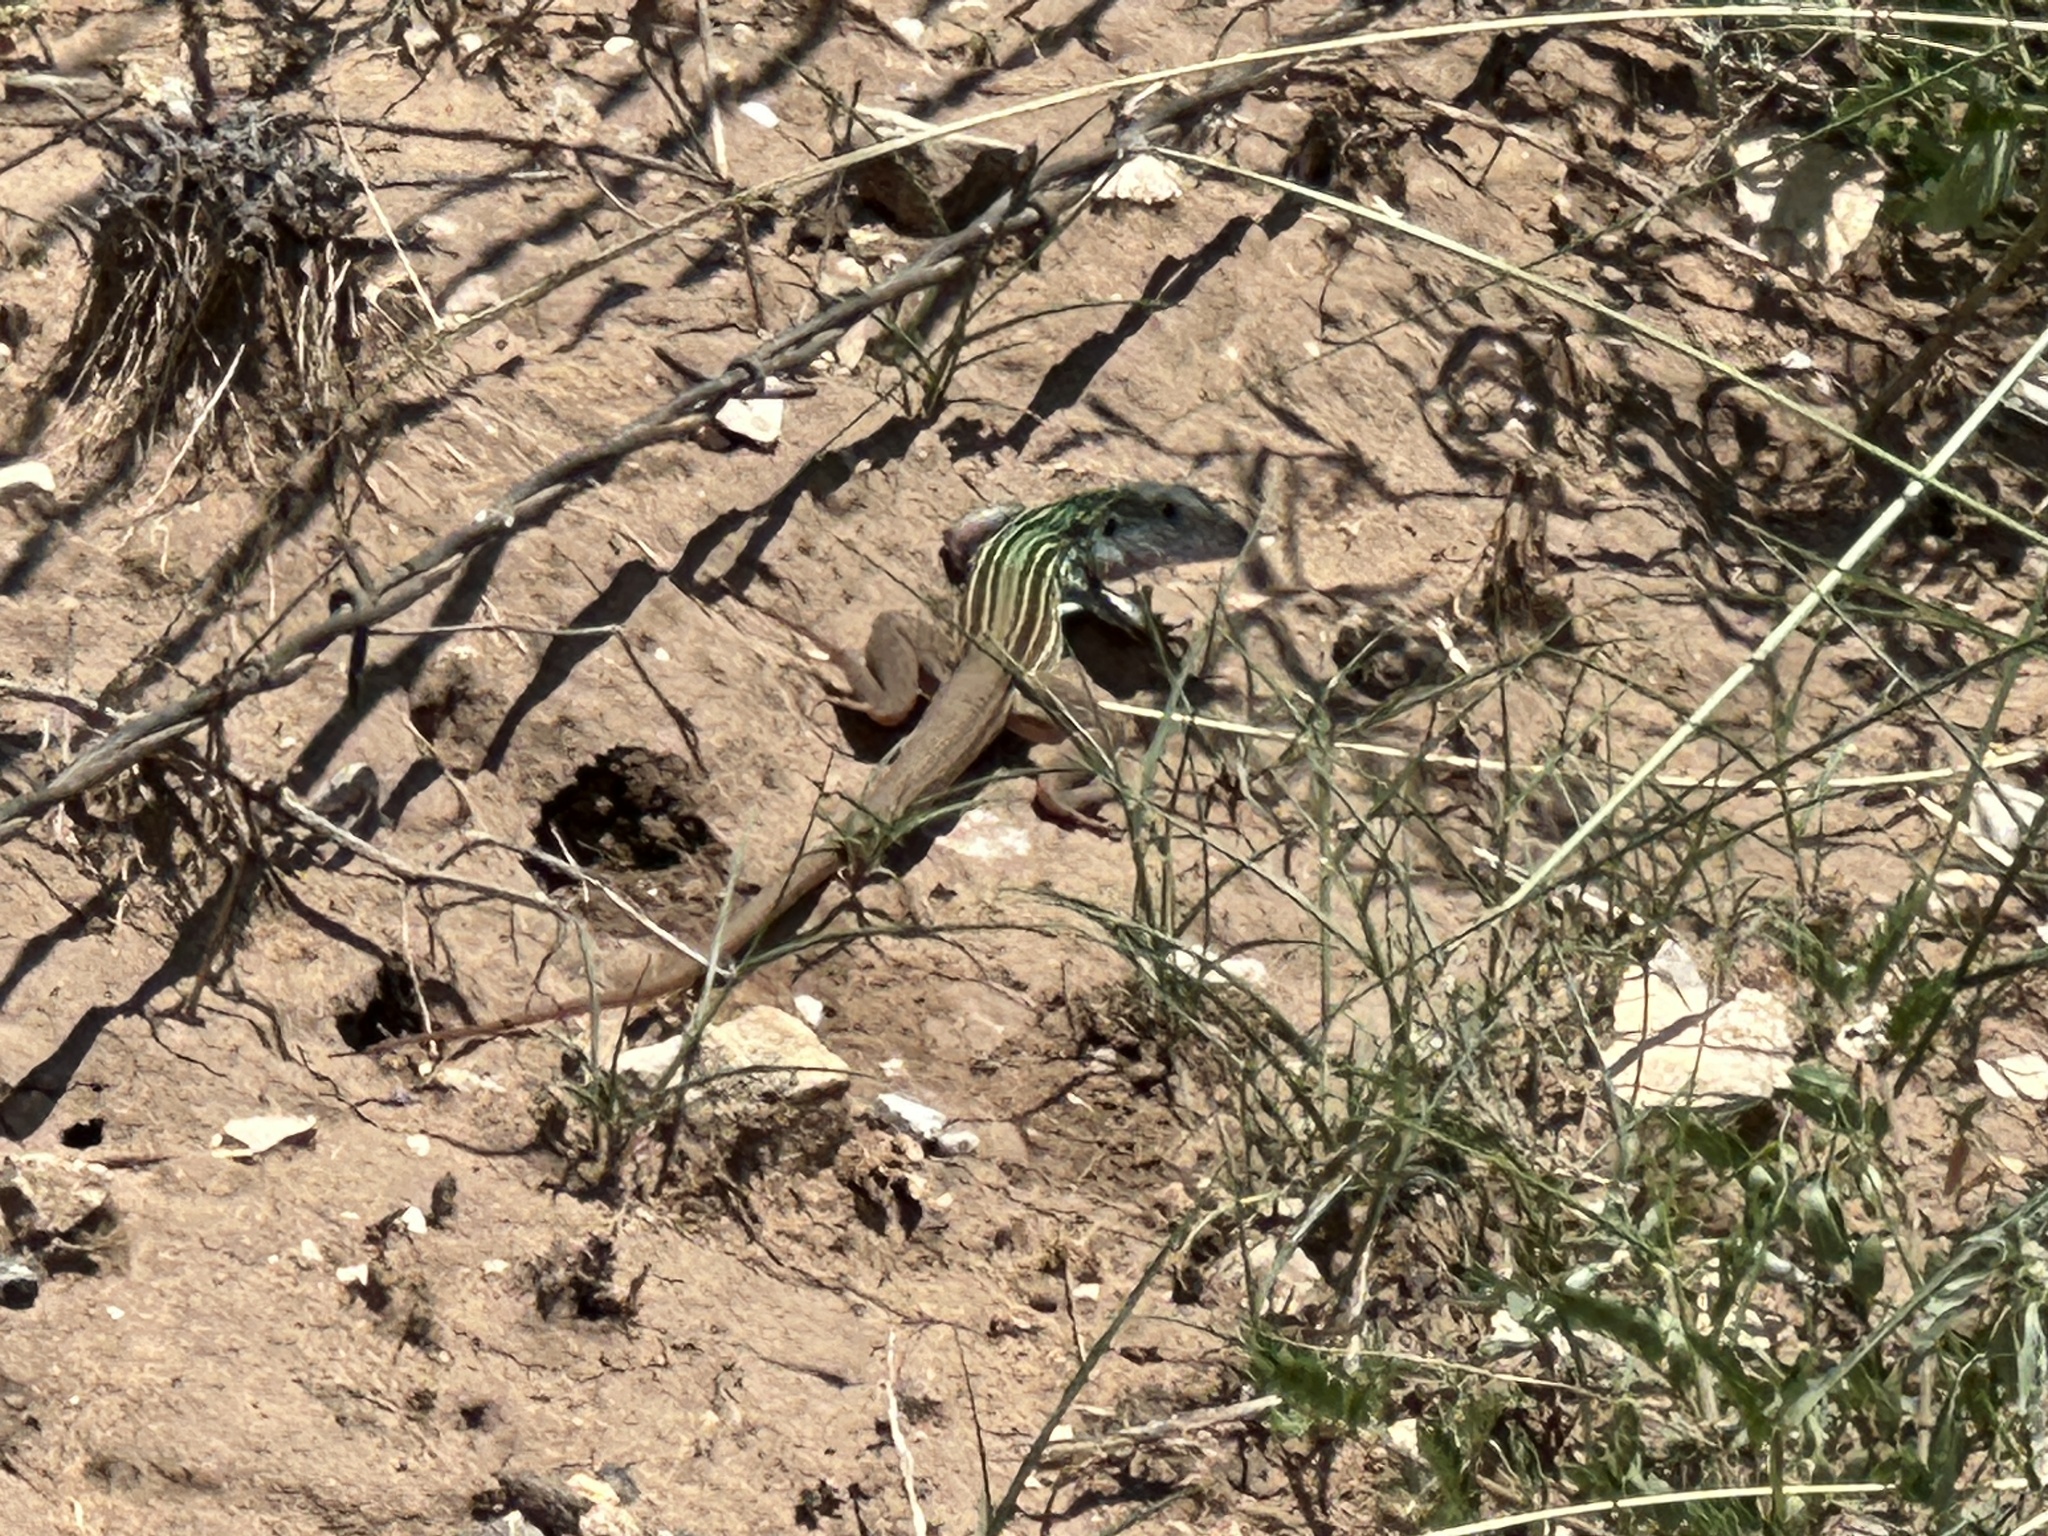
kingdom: Animalia
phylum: Chordata
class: Squamata
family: Teiidae
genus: Aspidoscelis
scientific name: Aspidoscelis gularis
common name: Eastern spotted whiptail
